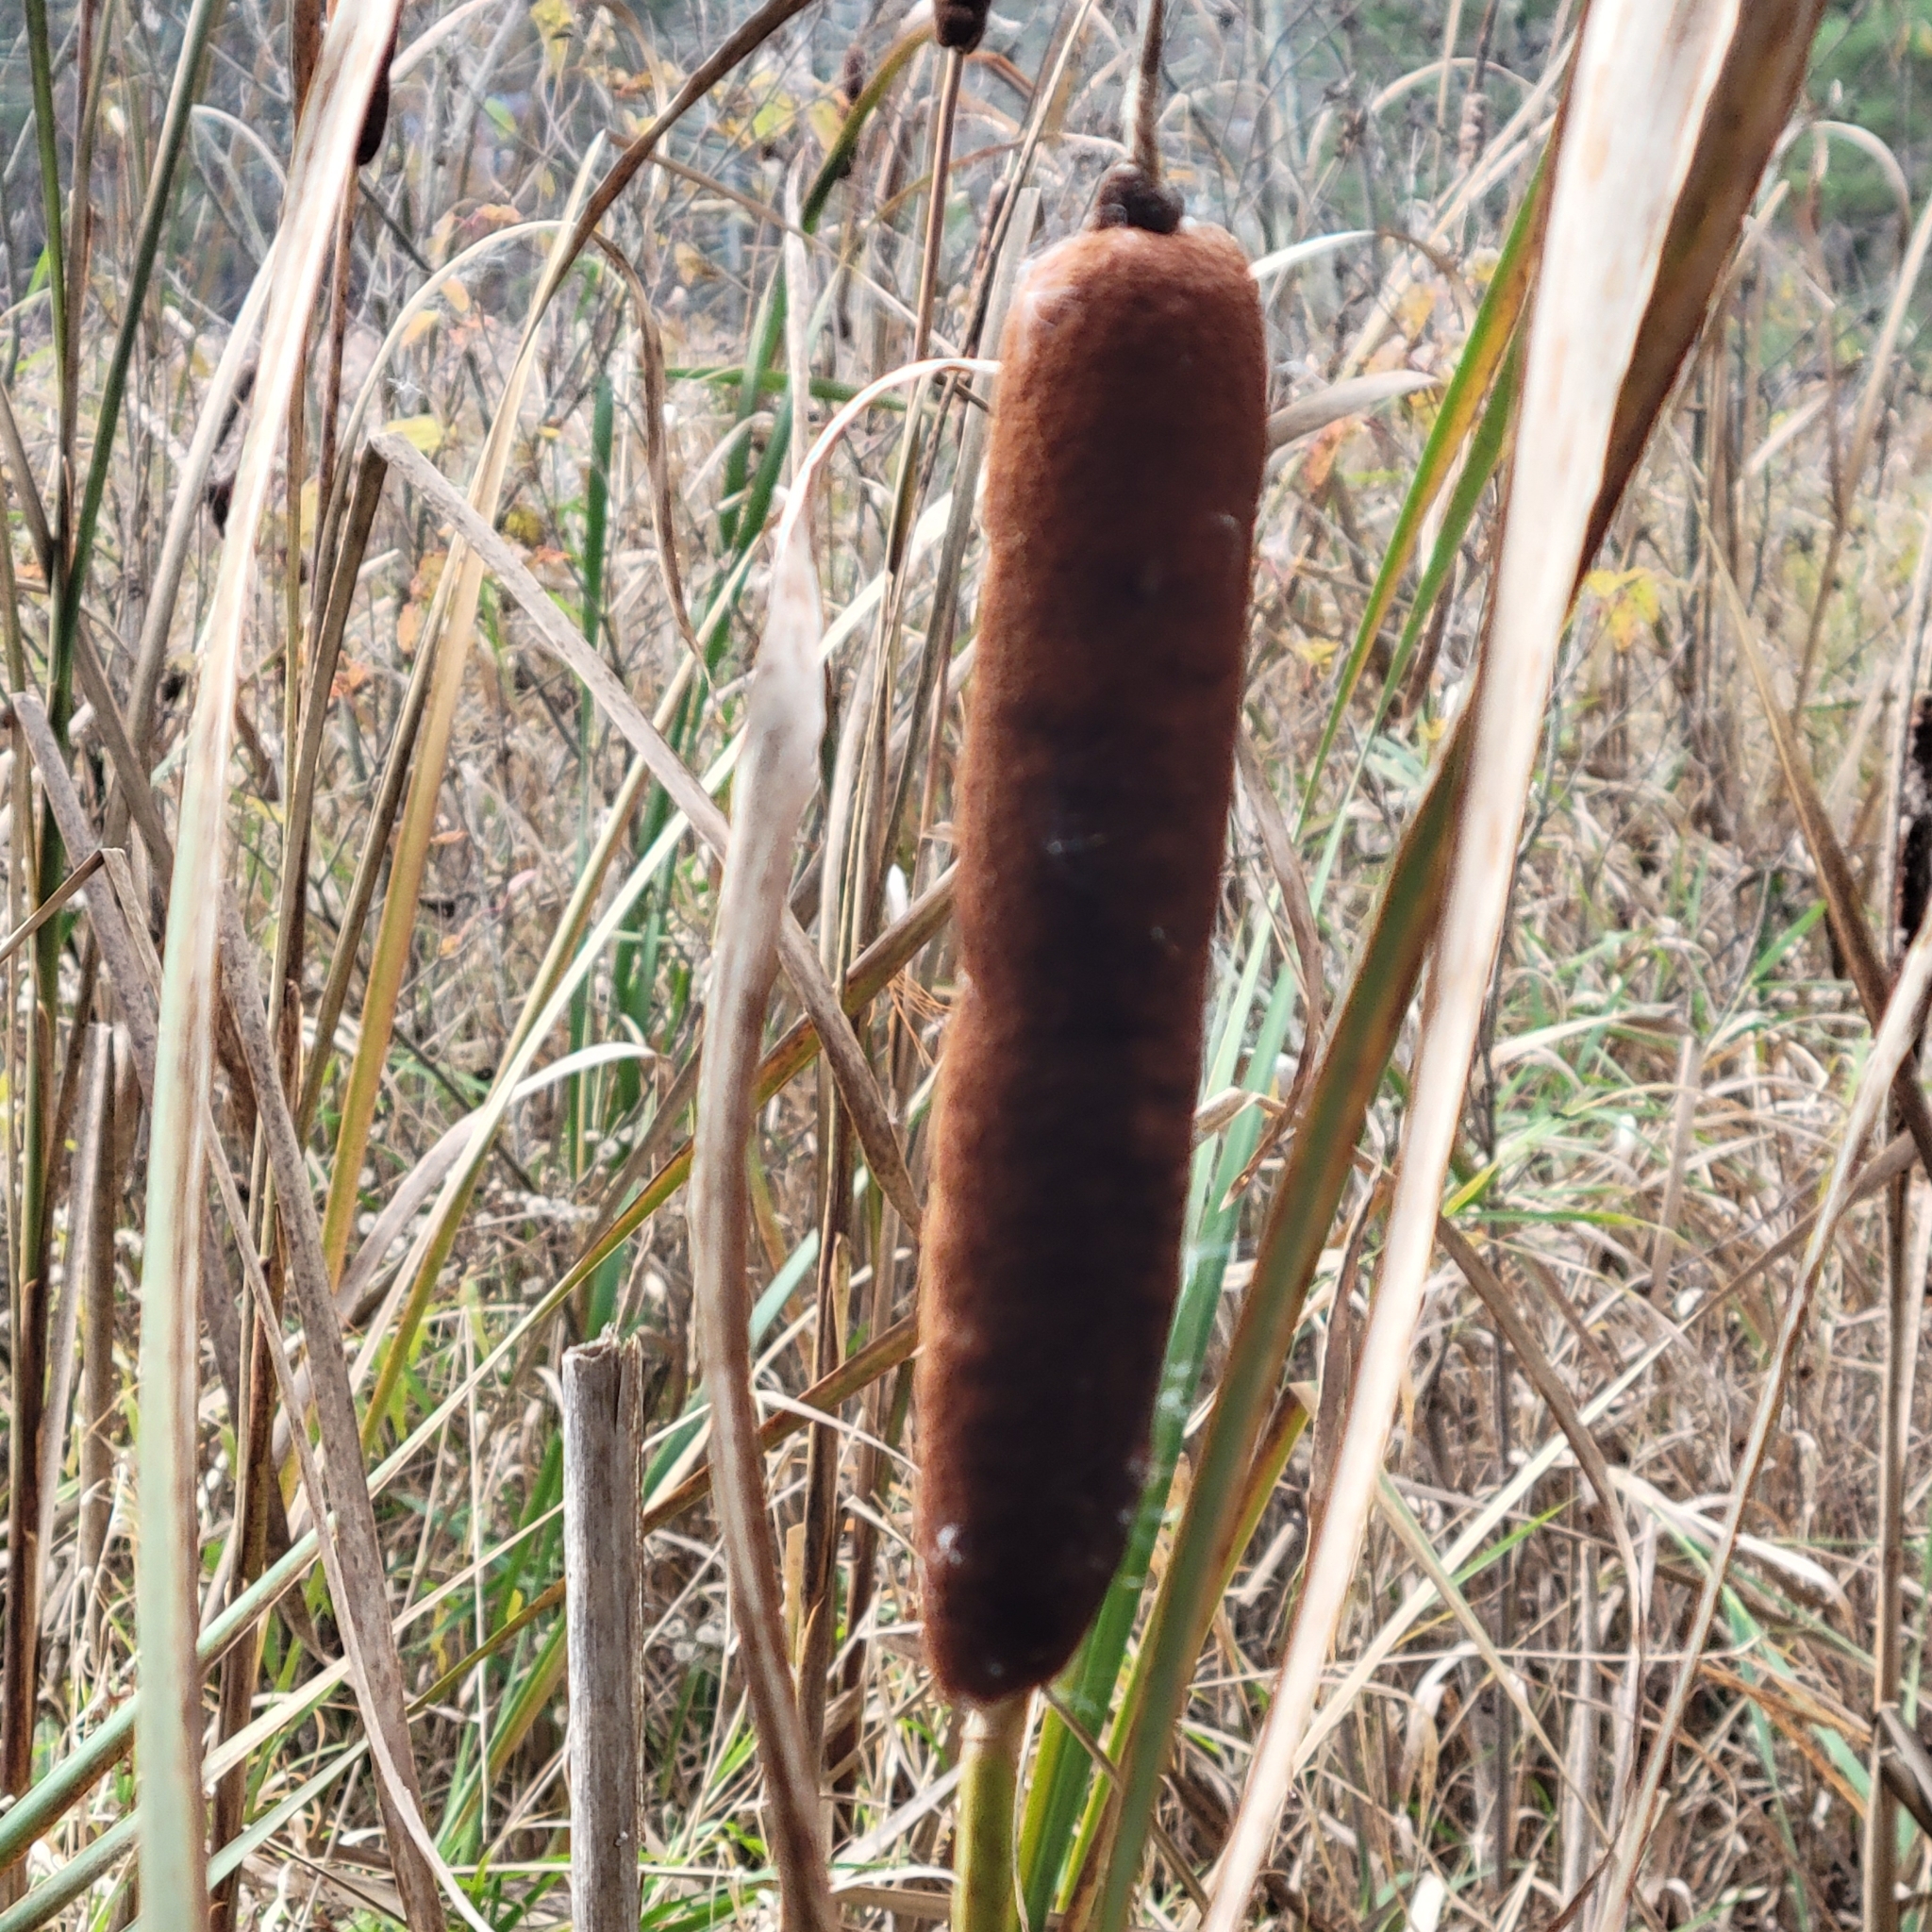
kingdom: Plantae
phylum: Tracheophyta
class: Liliopsida
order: Poales
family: Typhaceae
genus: Typha
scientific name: Typha latifolia
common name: Broadleaf cattail
